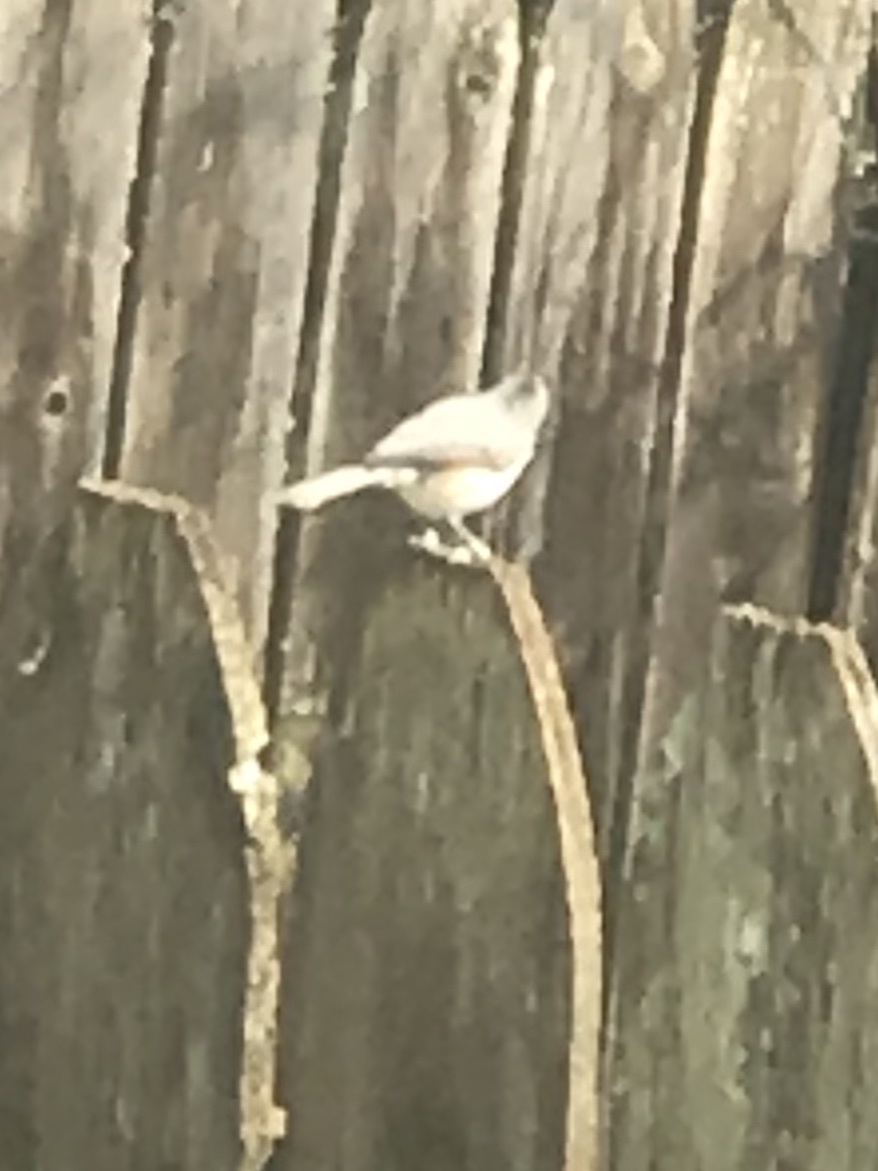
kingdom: Animalia
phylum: Chordata
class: Aves
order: Passeriformes
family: Paridae
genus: Baeolophus
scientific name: Baeolophus bicolor
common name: Tufted titmouse
